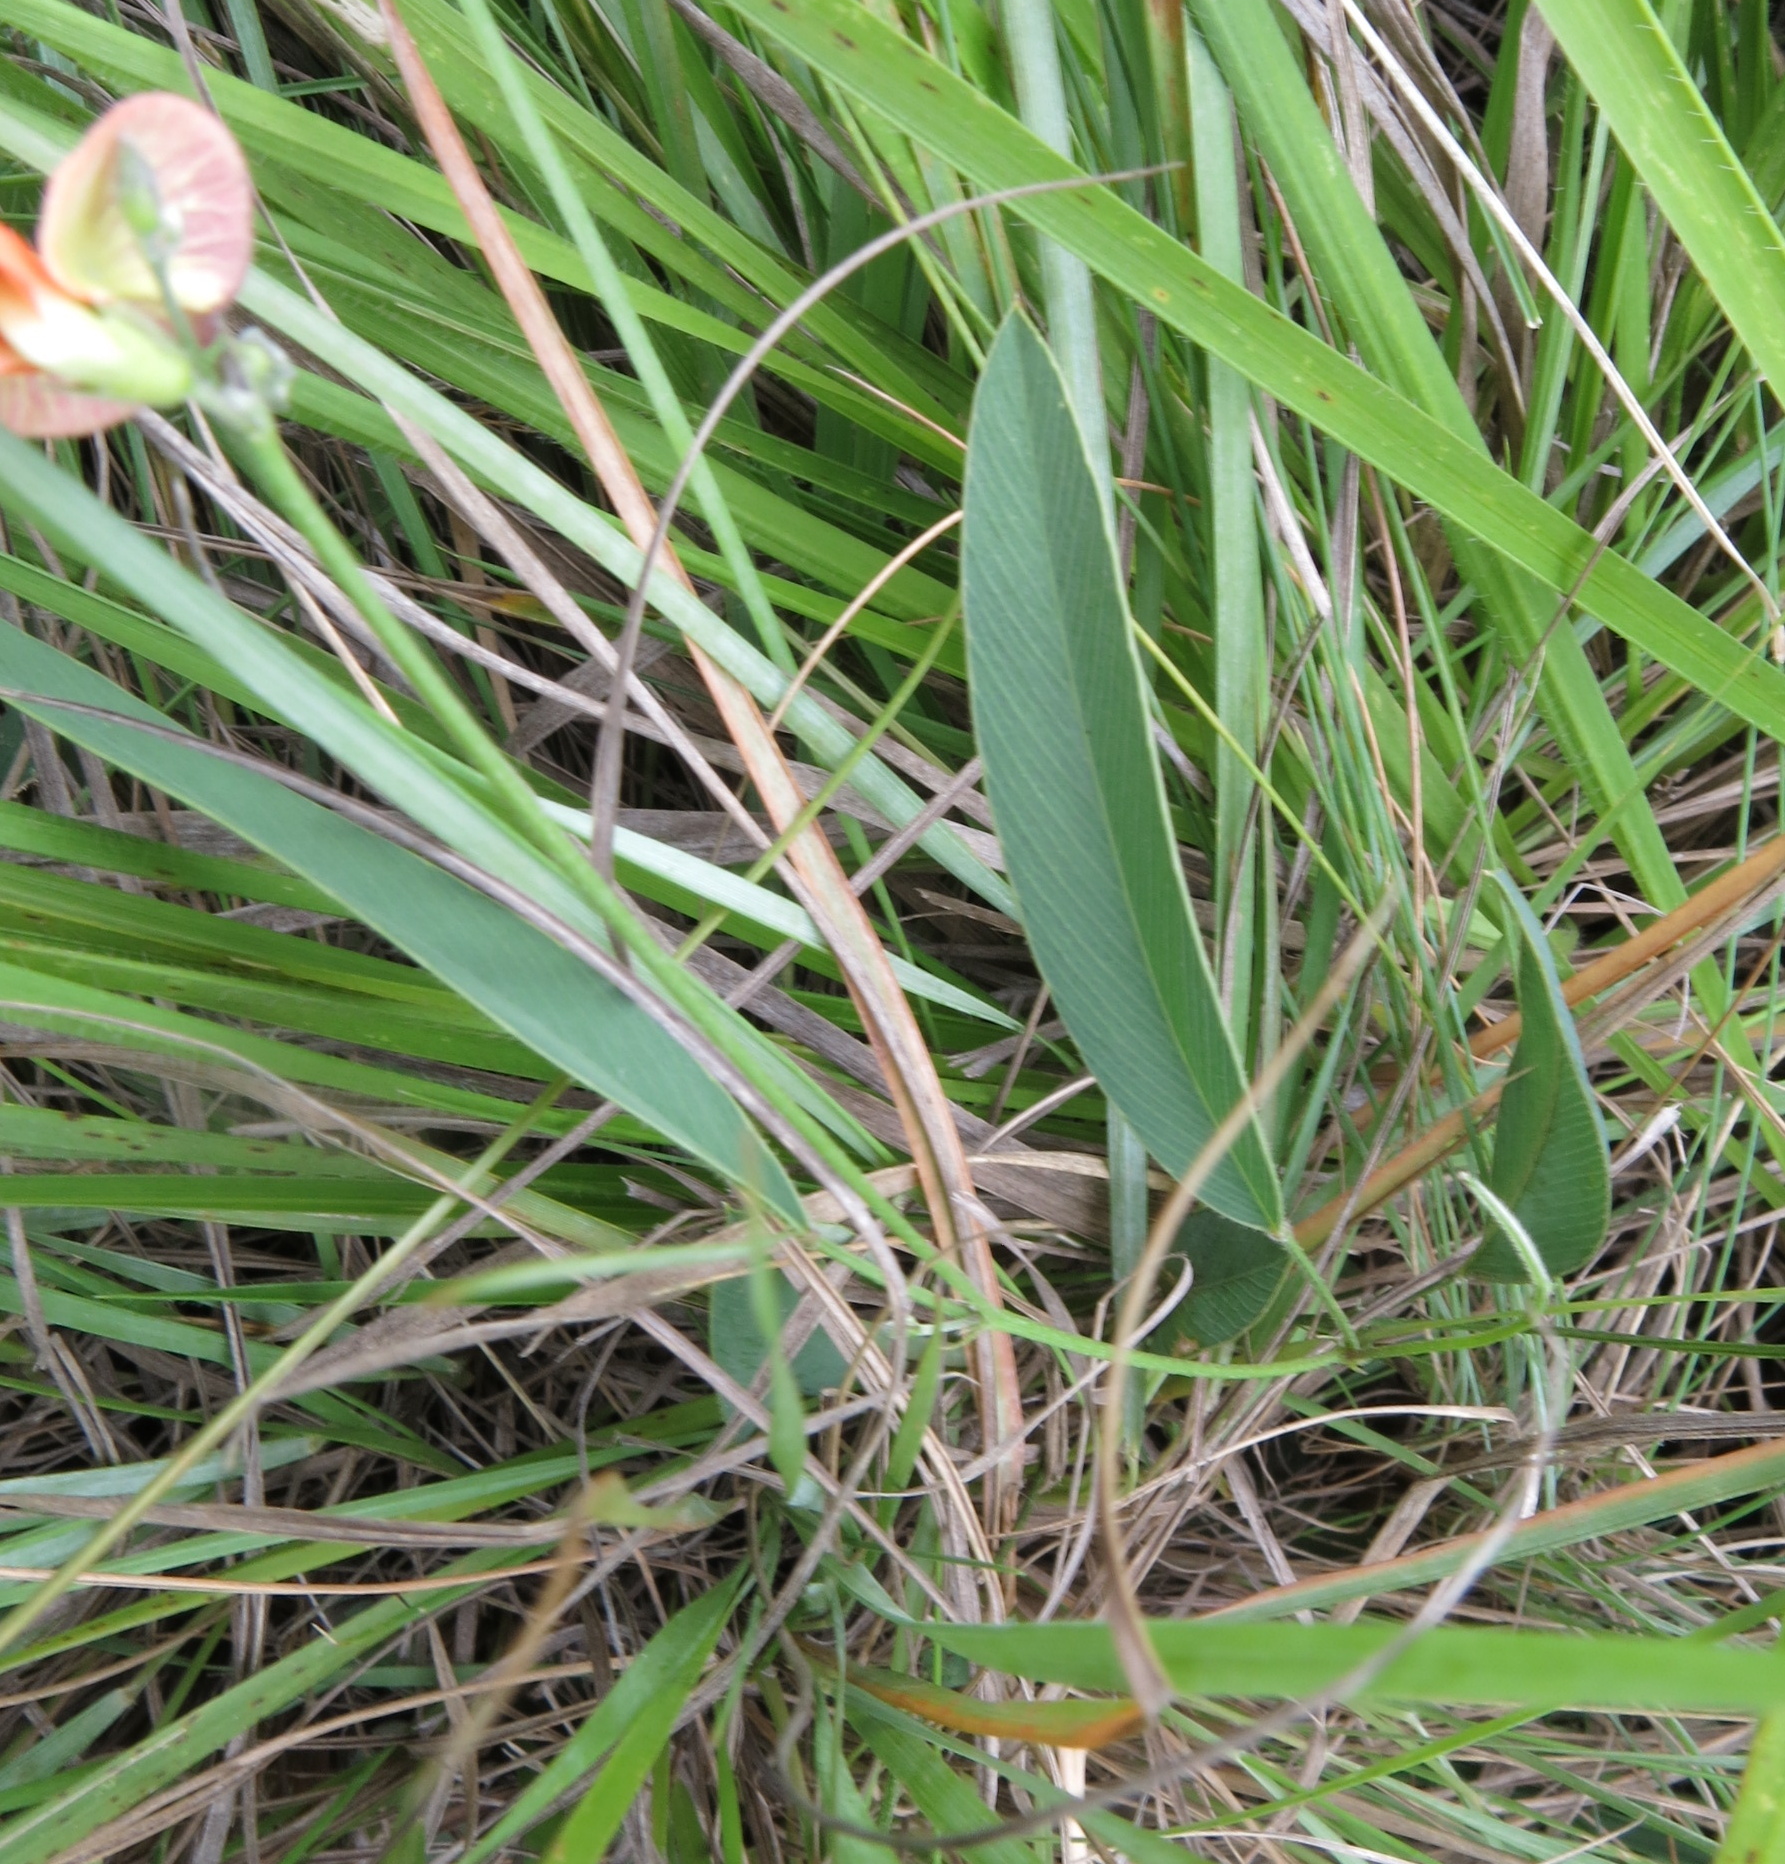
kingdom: Plantae
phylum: Tracheophyta
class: Magnoliopsida
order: Fabales
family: Fabaceae
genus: Tephrosia
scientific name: Tephrosia elongata
